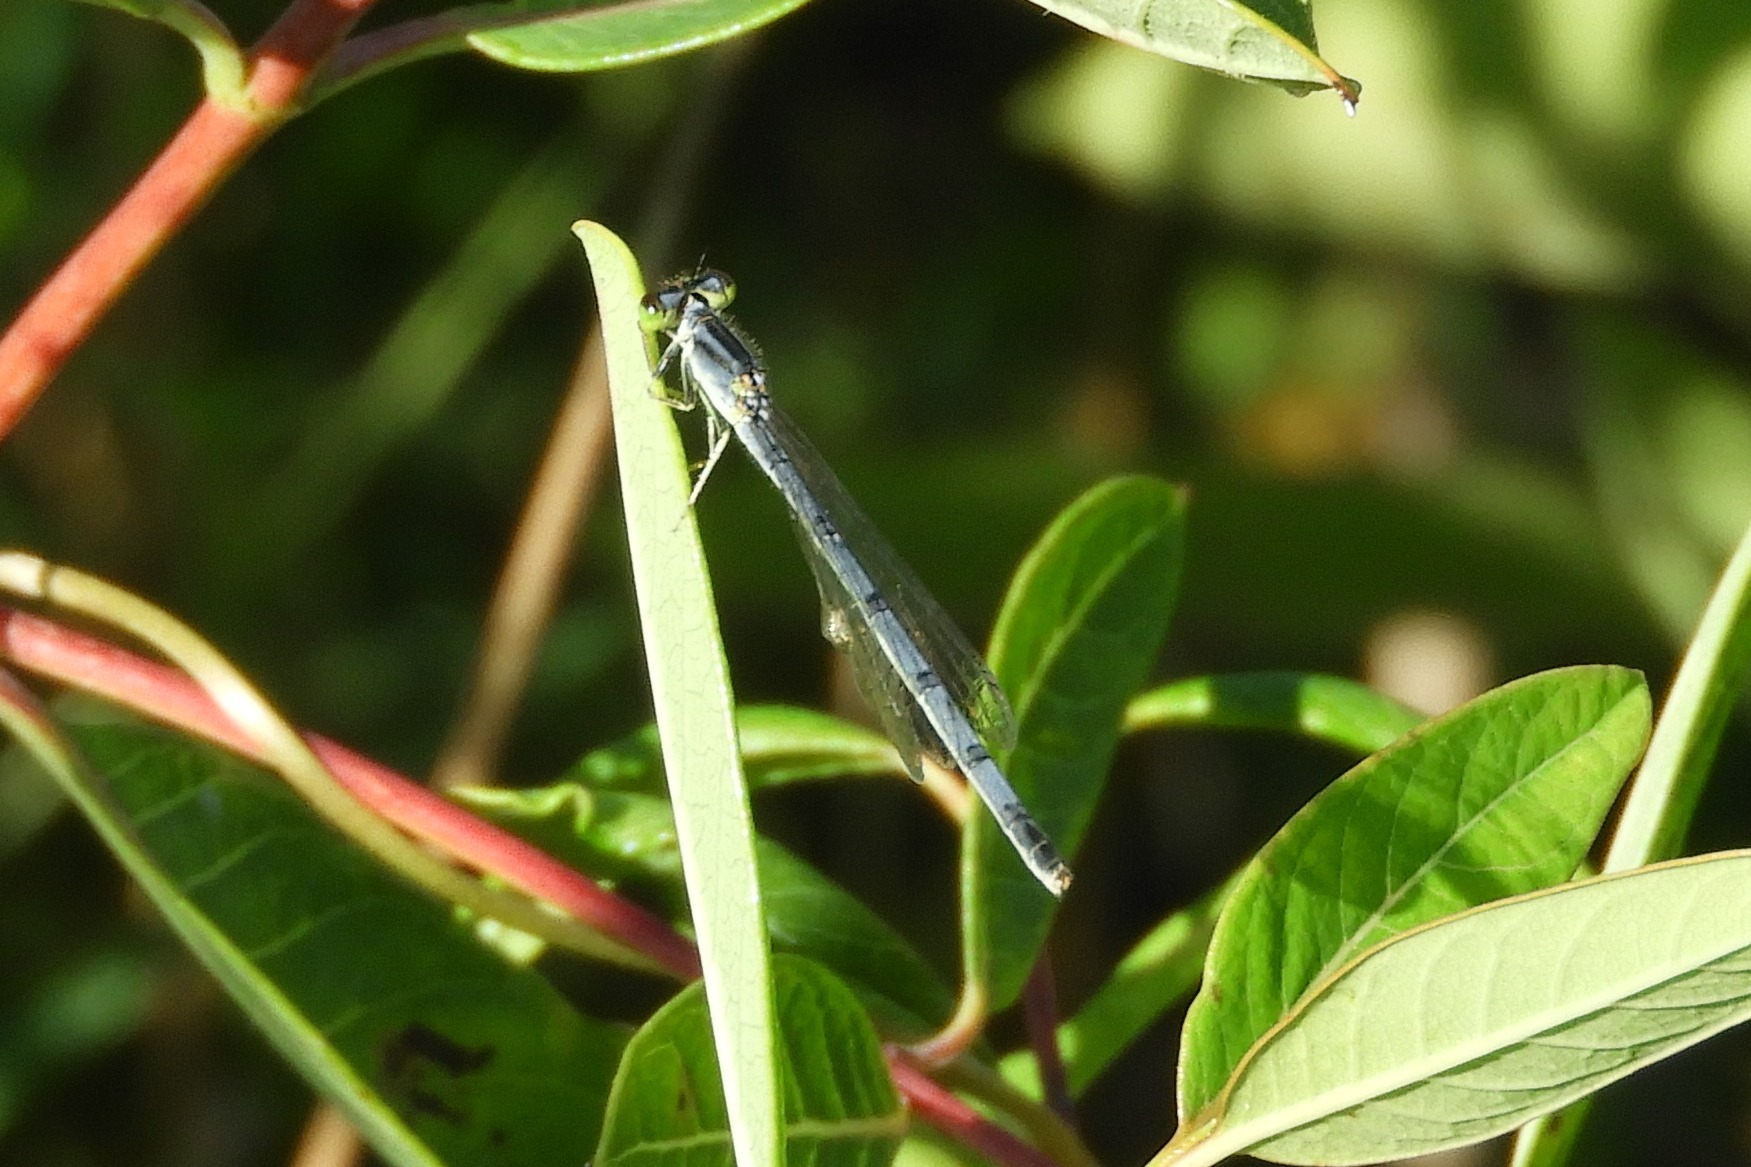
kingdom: Animalia
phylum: Arthropoda
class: Insecta
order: Odonata
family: Coenagrionidae
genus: Ischnura
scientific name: Ischnura verticalis
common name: Eastern forktail
